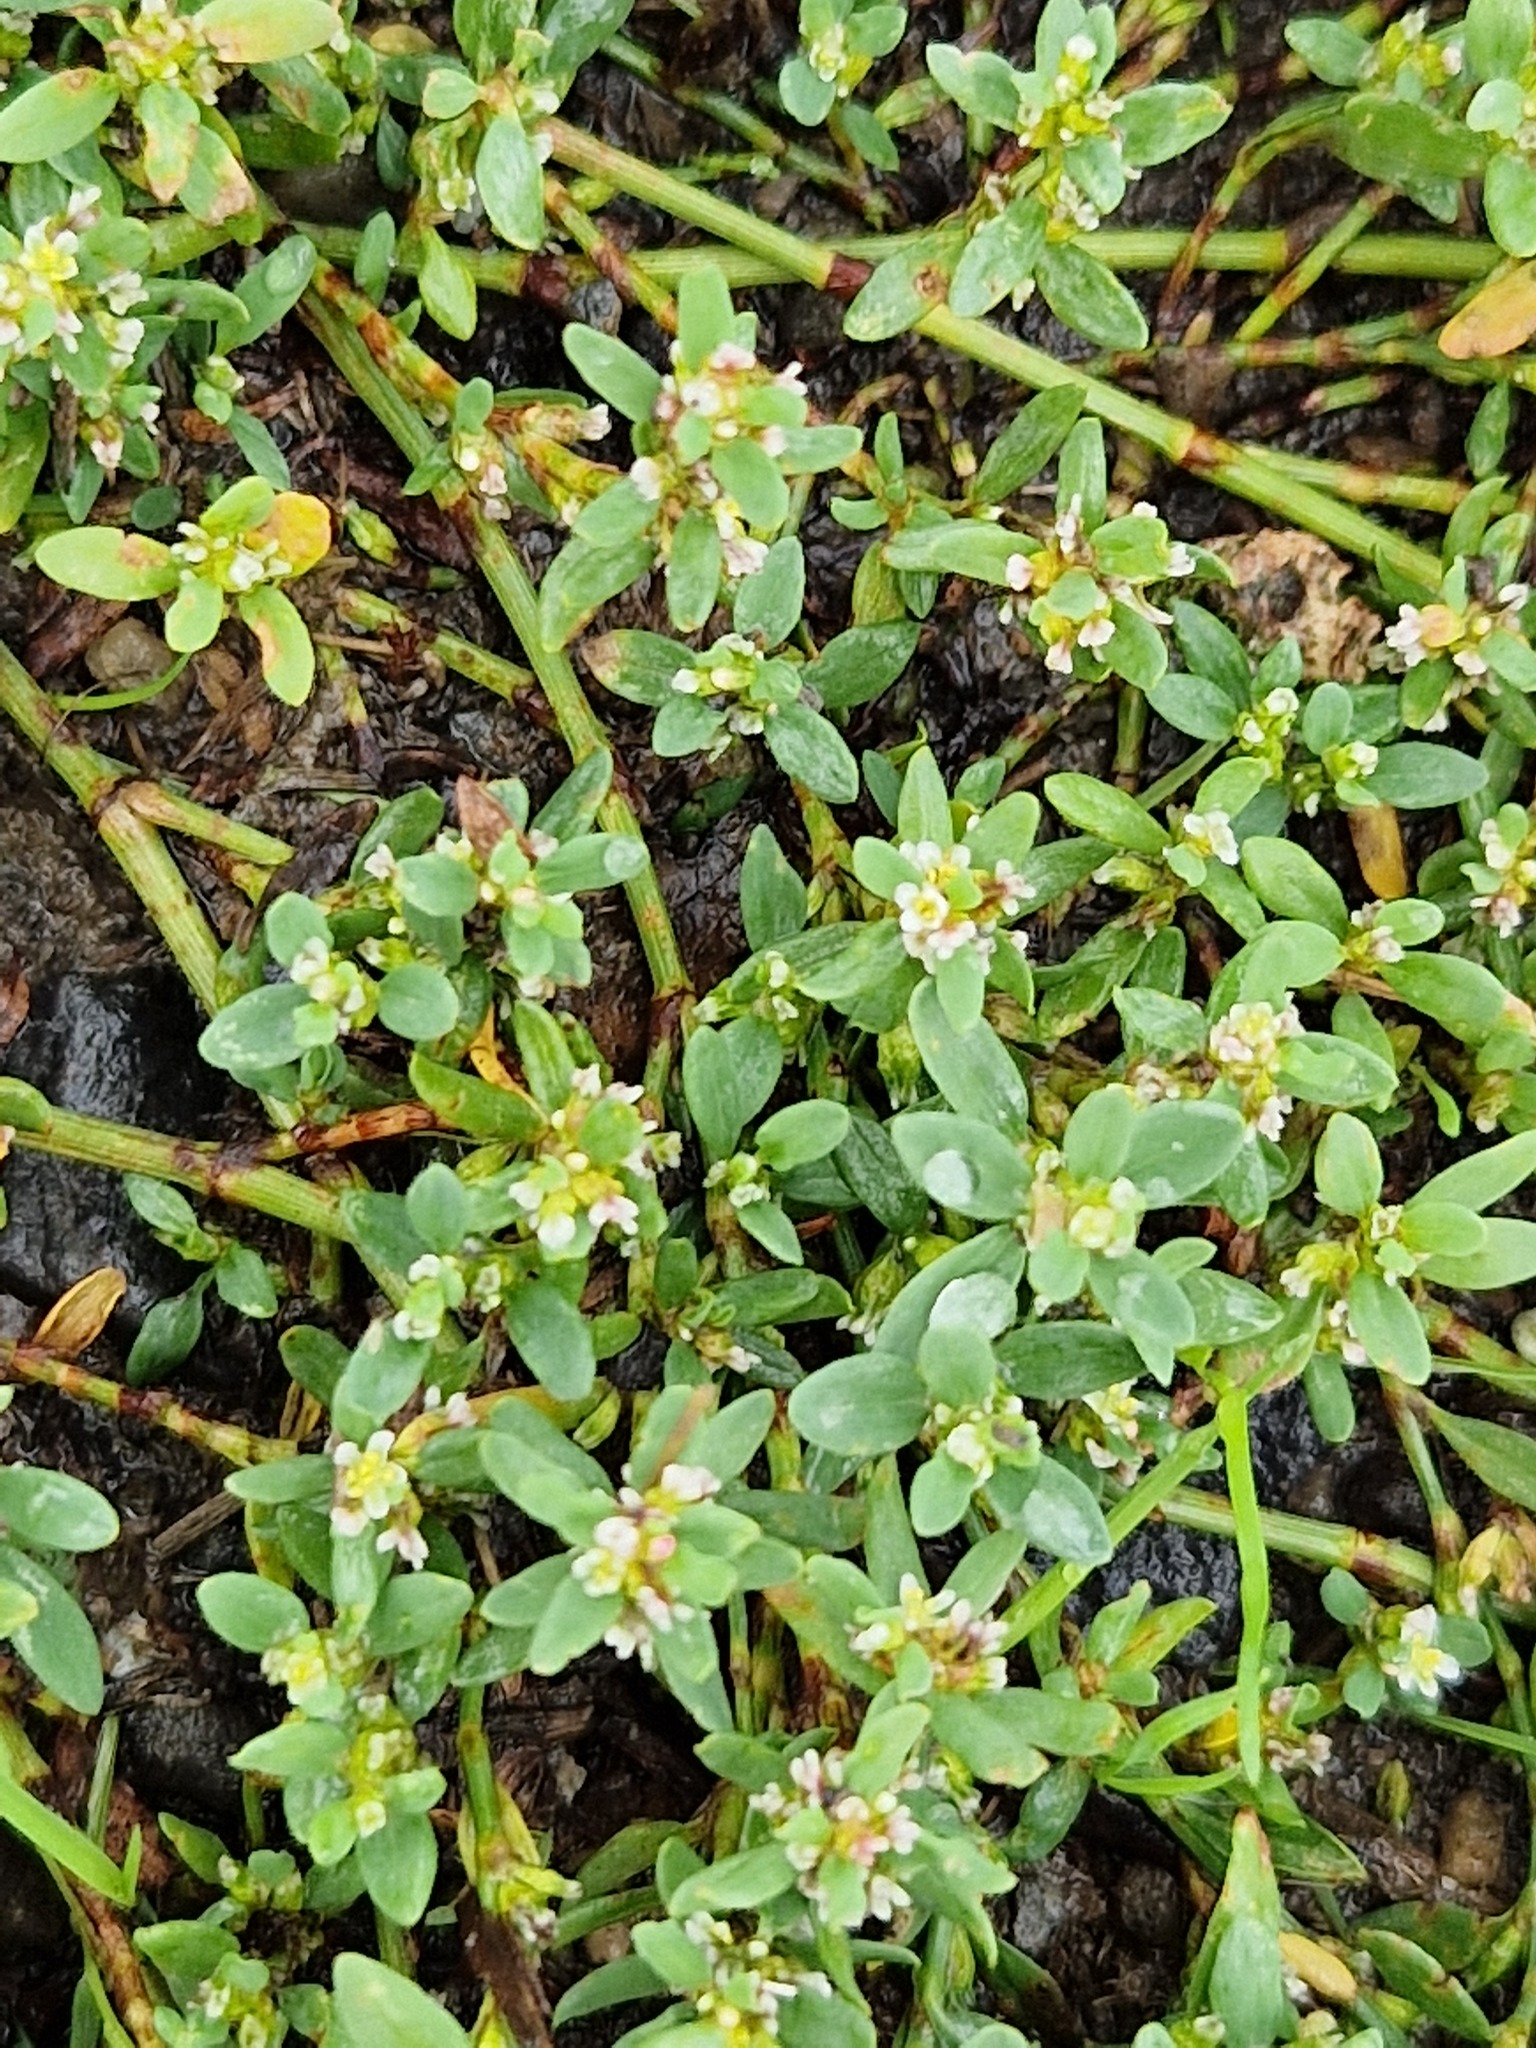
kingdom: Plantae
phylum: Tracheophyta
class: Magnoliopsida
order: Caryophyllales
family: Polygonaceae
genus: Polygonum
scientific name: Polygonum aviculare
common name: Prostrate knotweed
